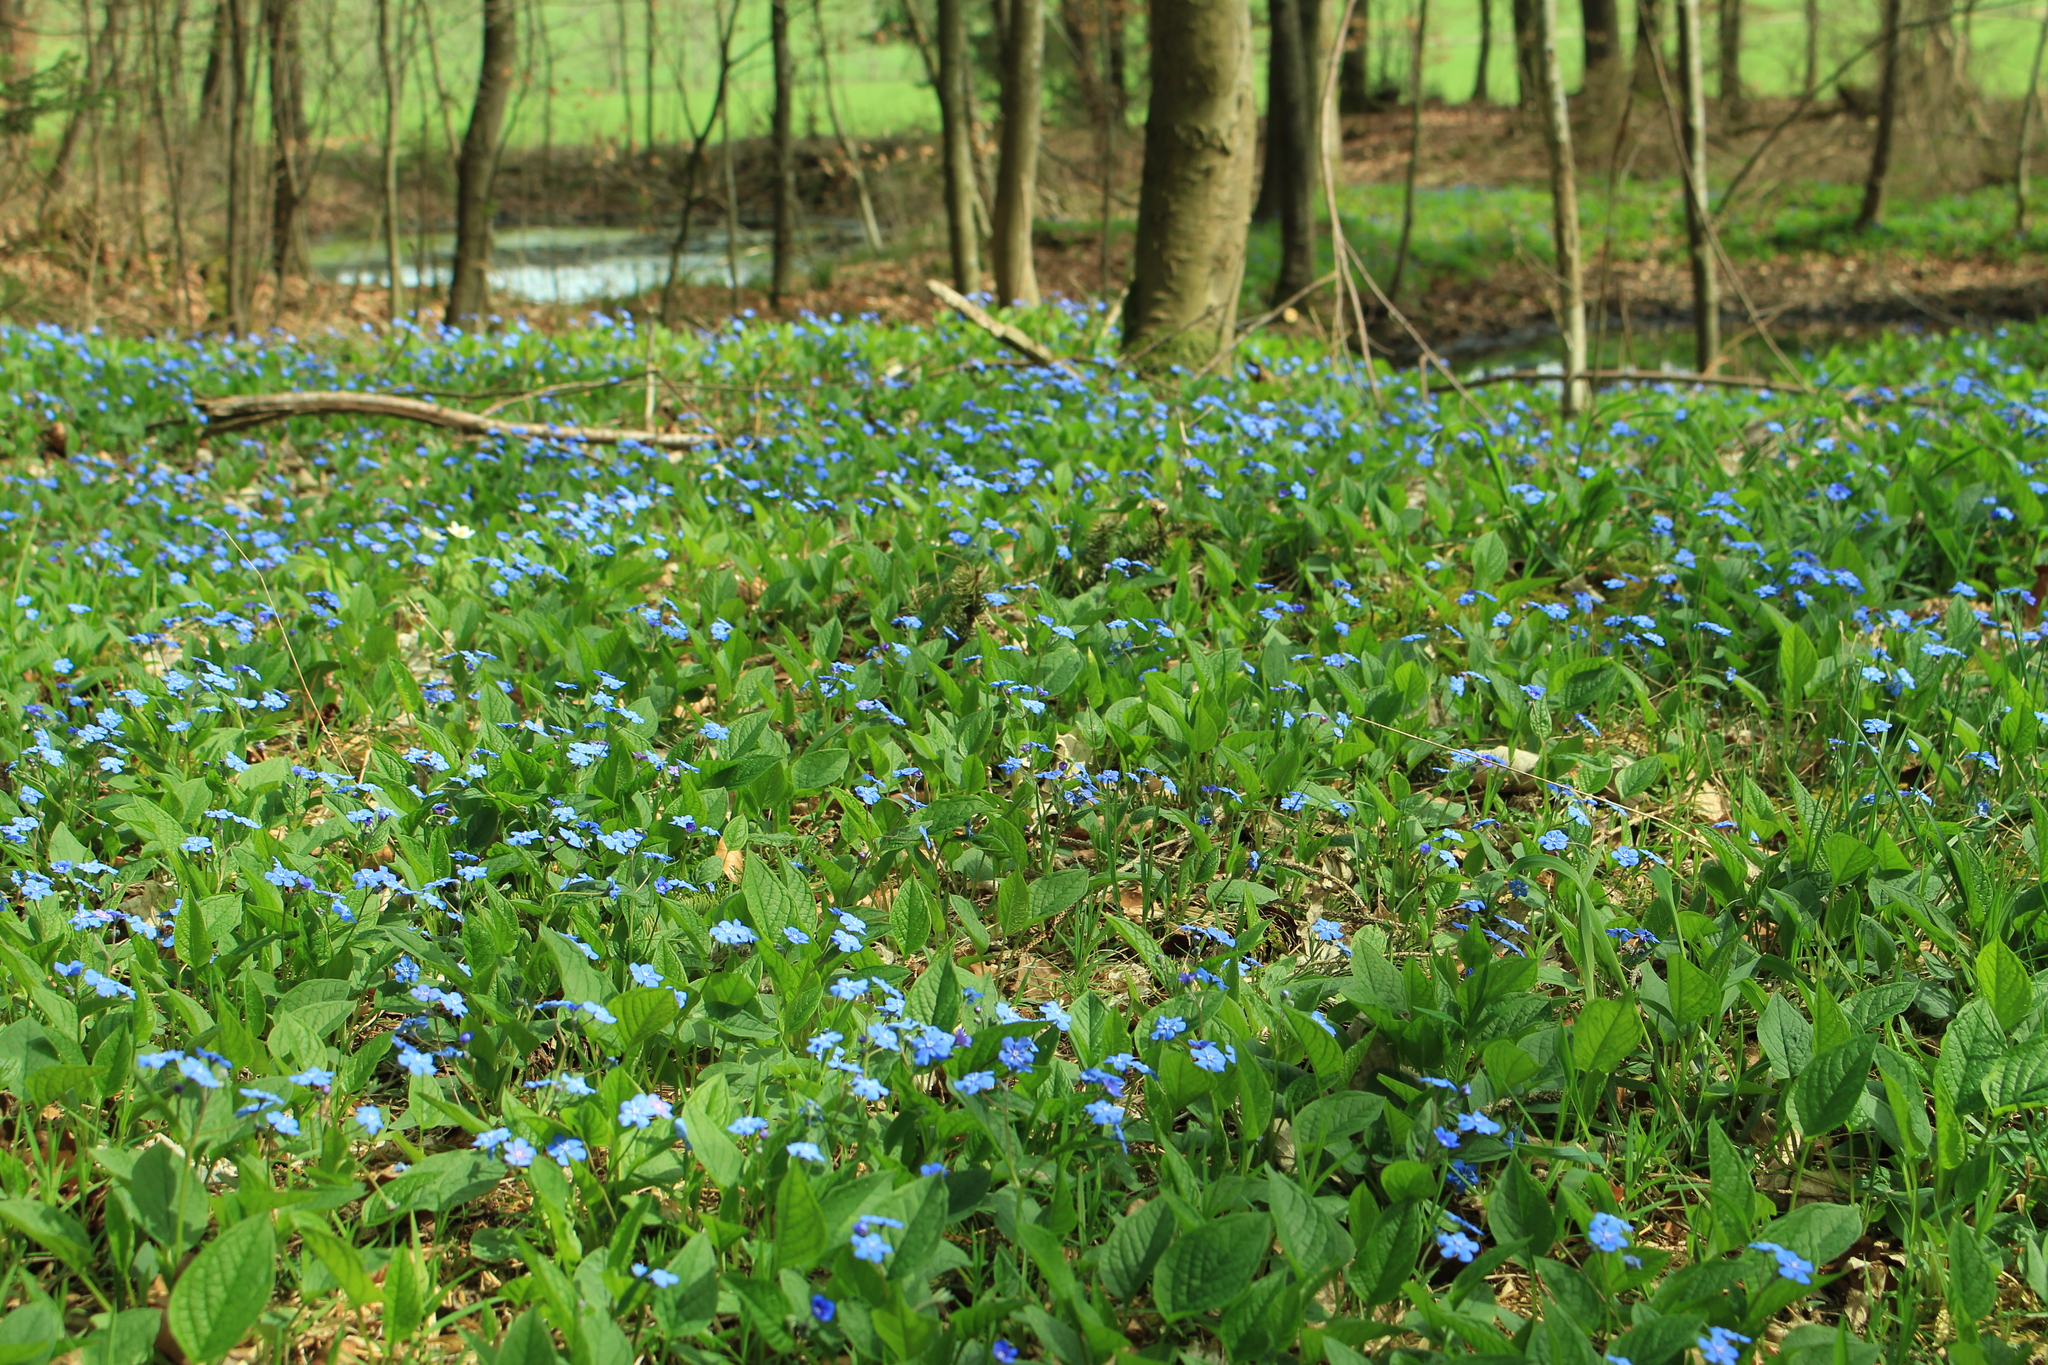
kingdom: Plantae
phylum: Tracheophyta
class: Magnoliopsida
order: Boraginales
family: Boraginaceae
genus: Omphalodes
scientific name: Omphalodes verna
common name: Blue-eyed-mary
